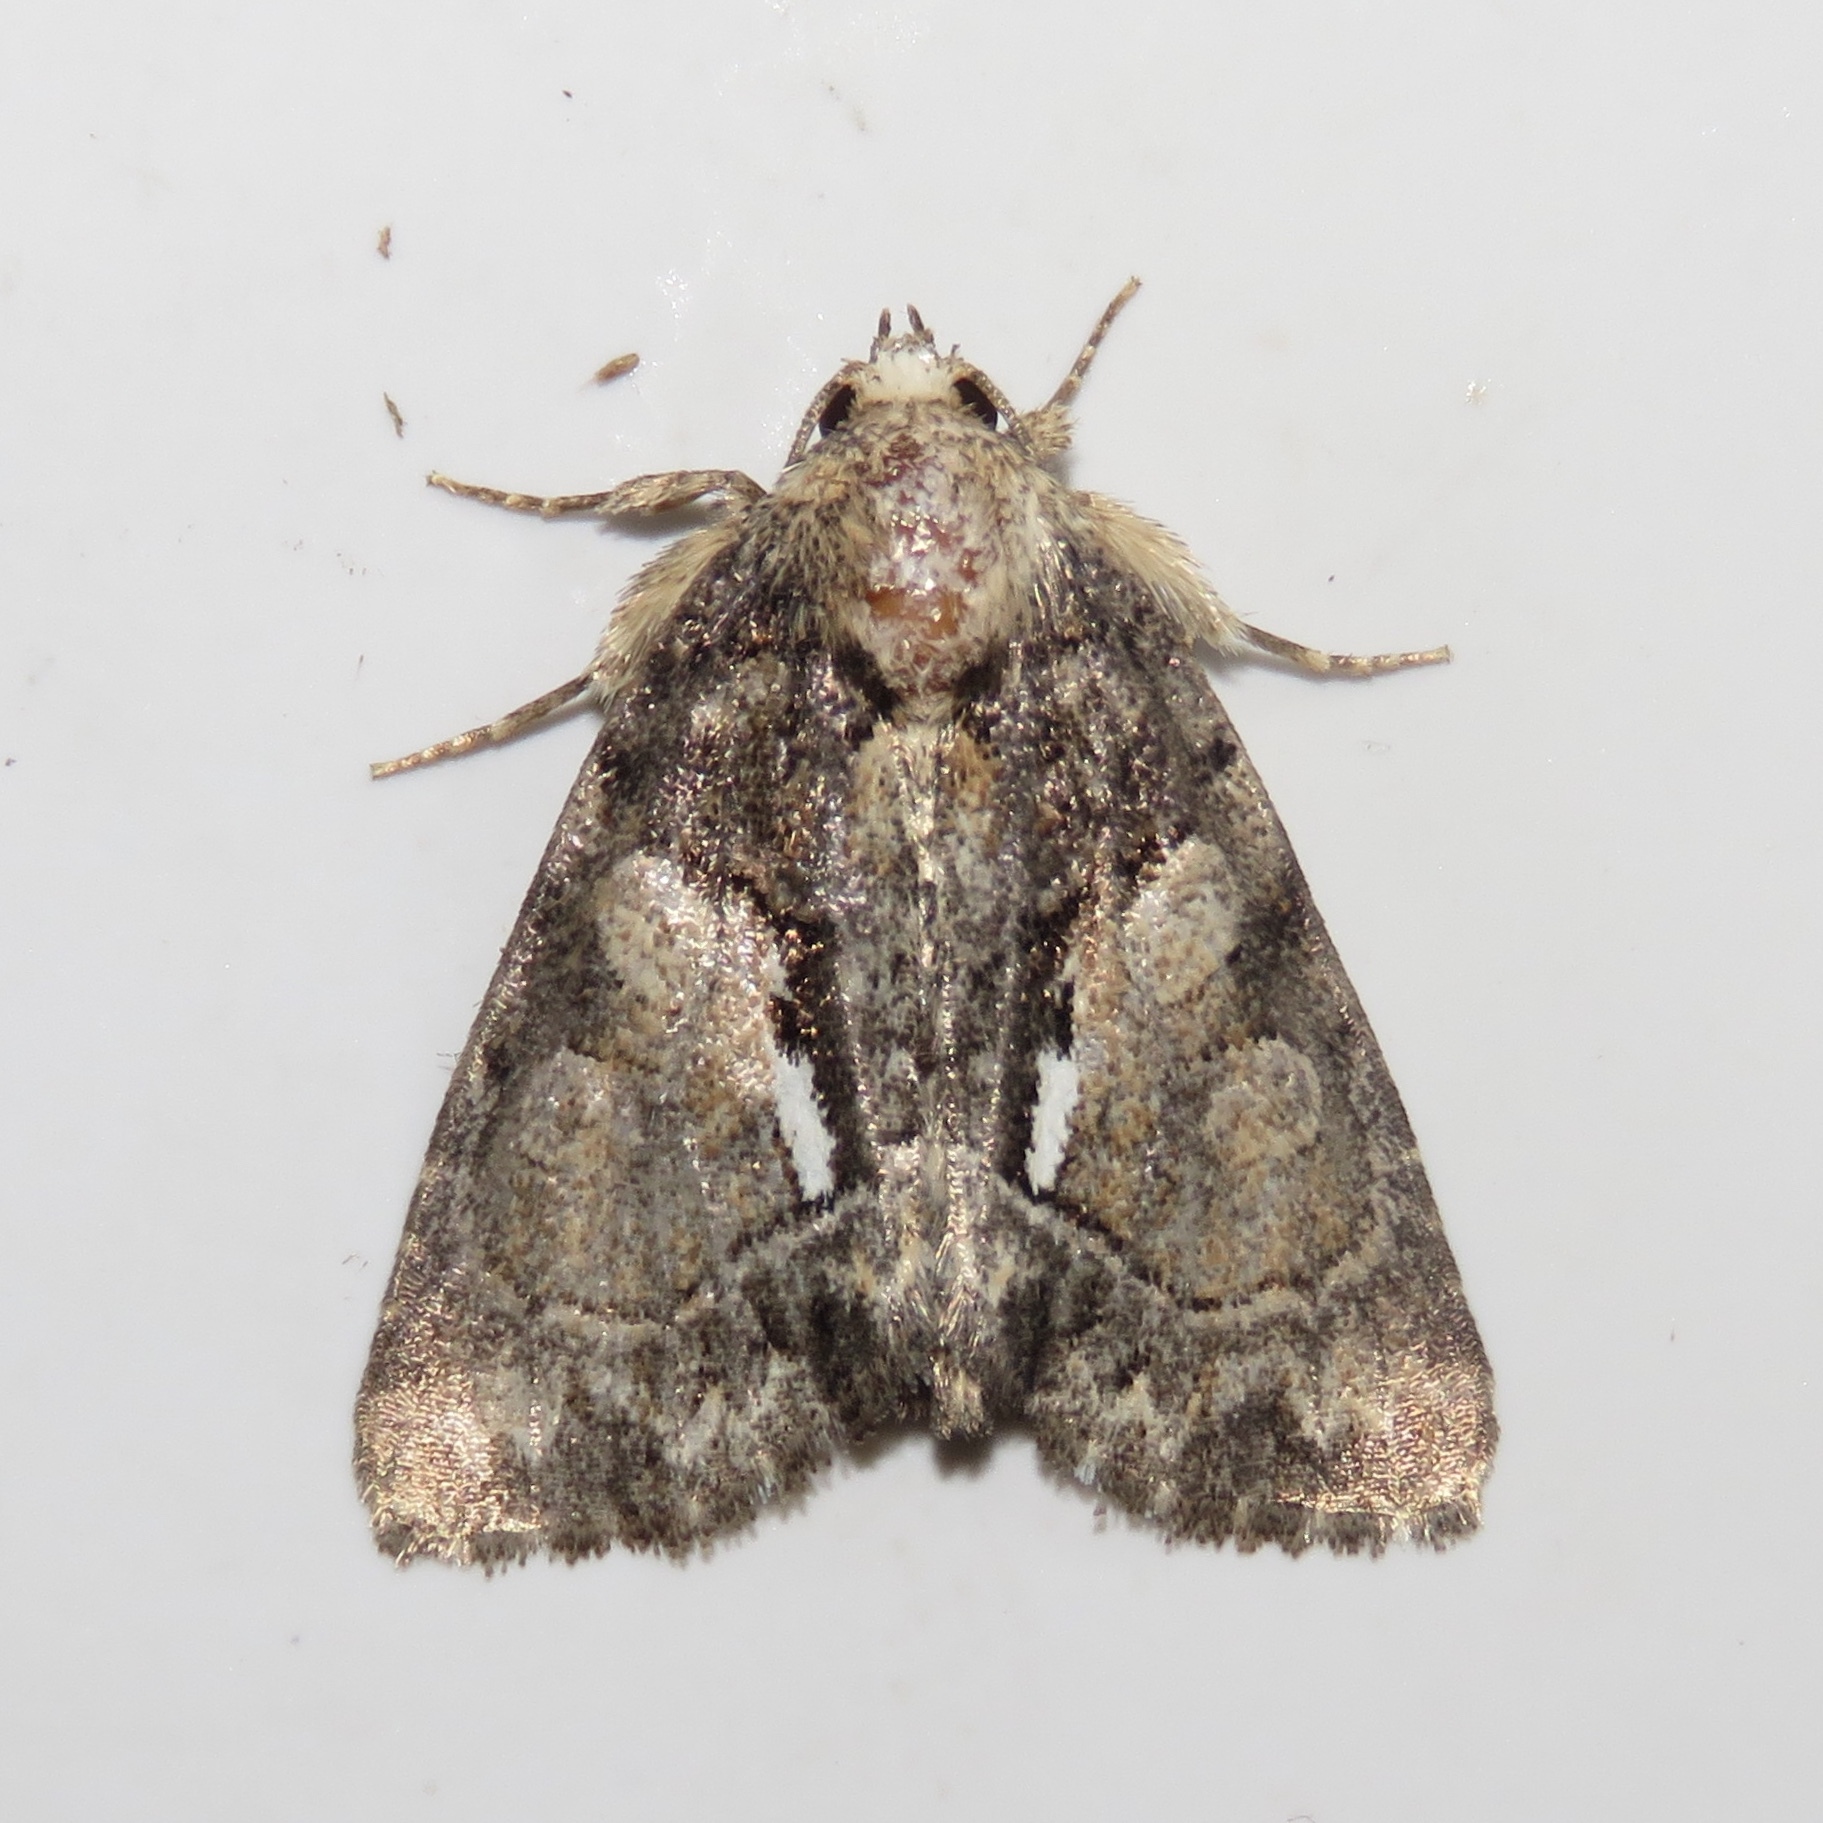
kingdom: Animalia
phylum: Arthropoda
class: Insecta
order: Lepidoptera
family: Noctuidae
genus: Chytonix
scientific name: Chytonix palliatricula
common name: Cloaked marvel
